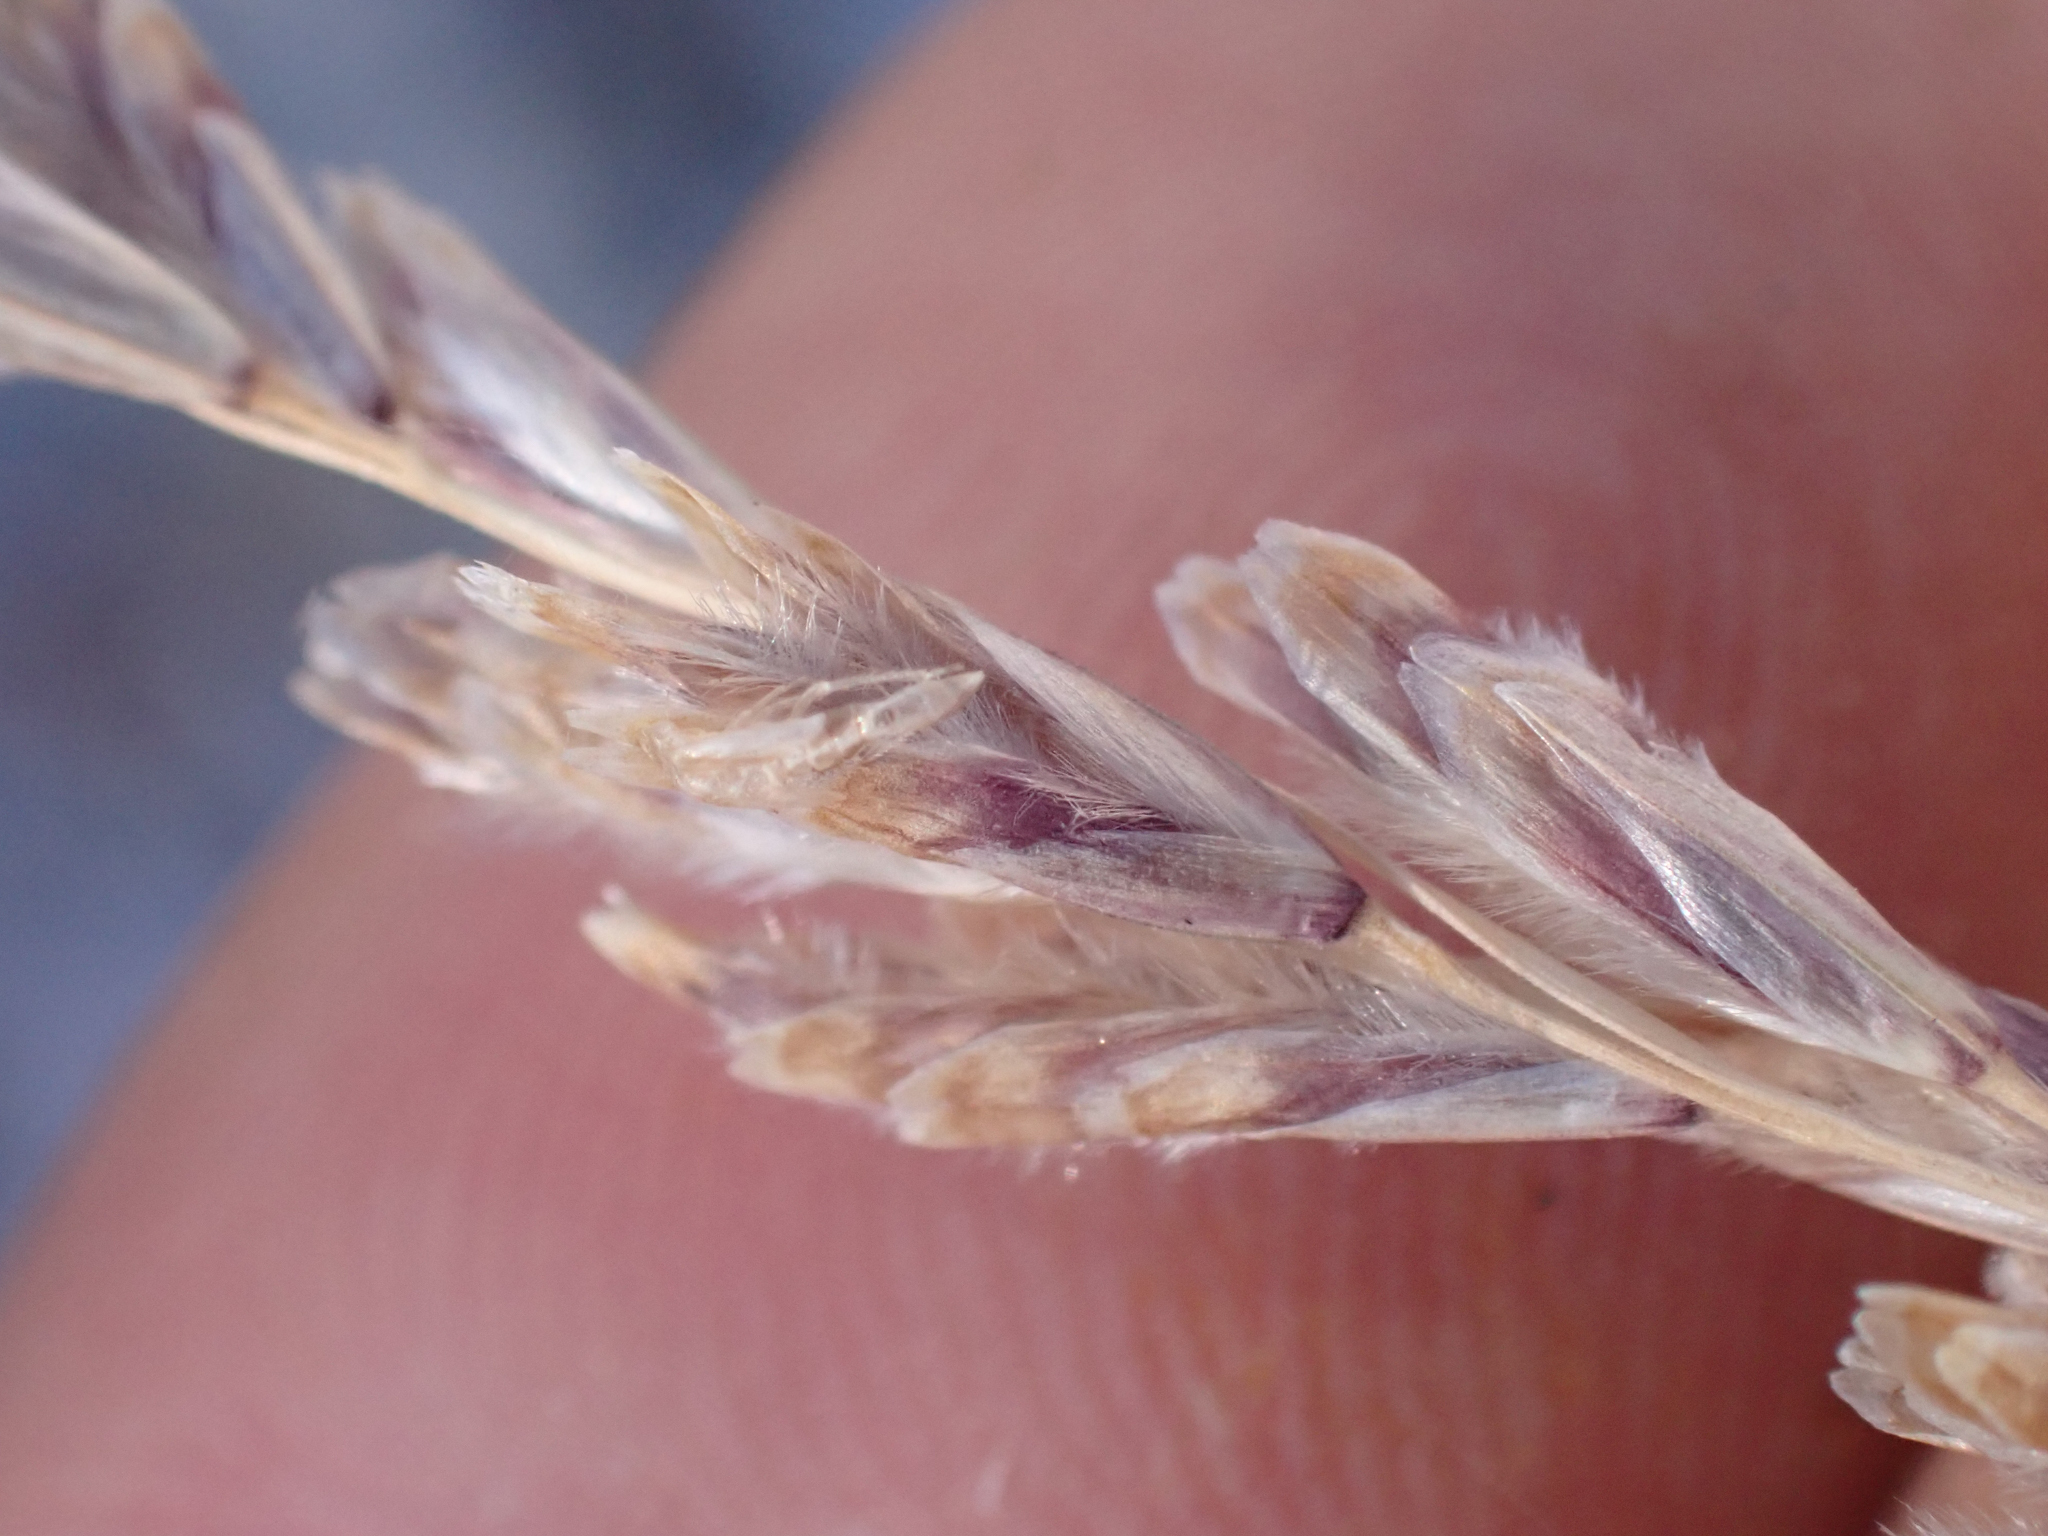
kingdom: Plantae
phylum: Tracheophyta
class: Liliopsida
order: Poales
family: Poaceae
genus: Tridentopsis
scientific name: Tridentopsis mutica
